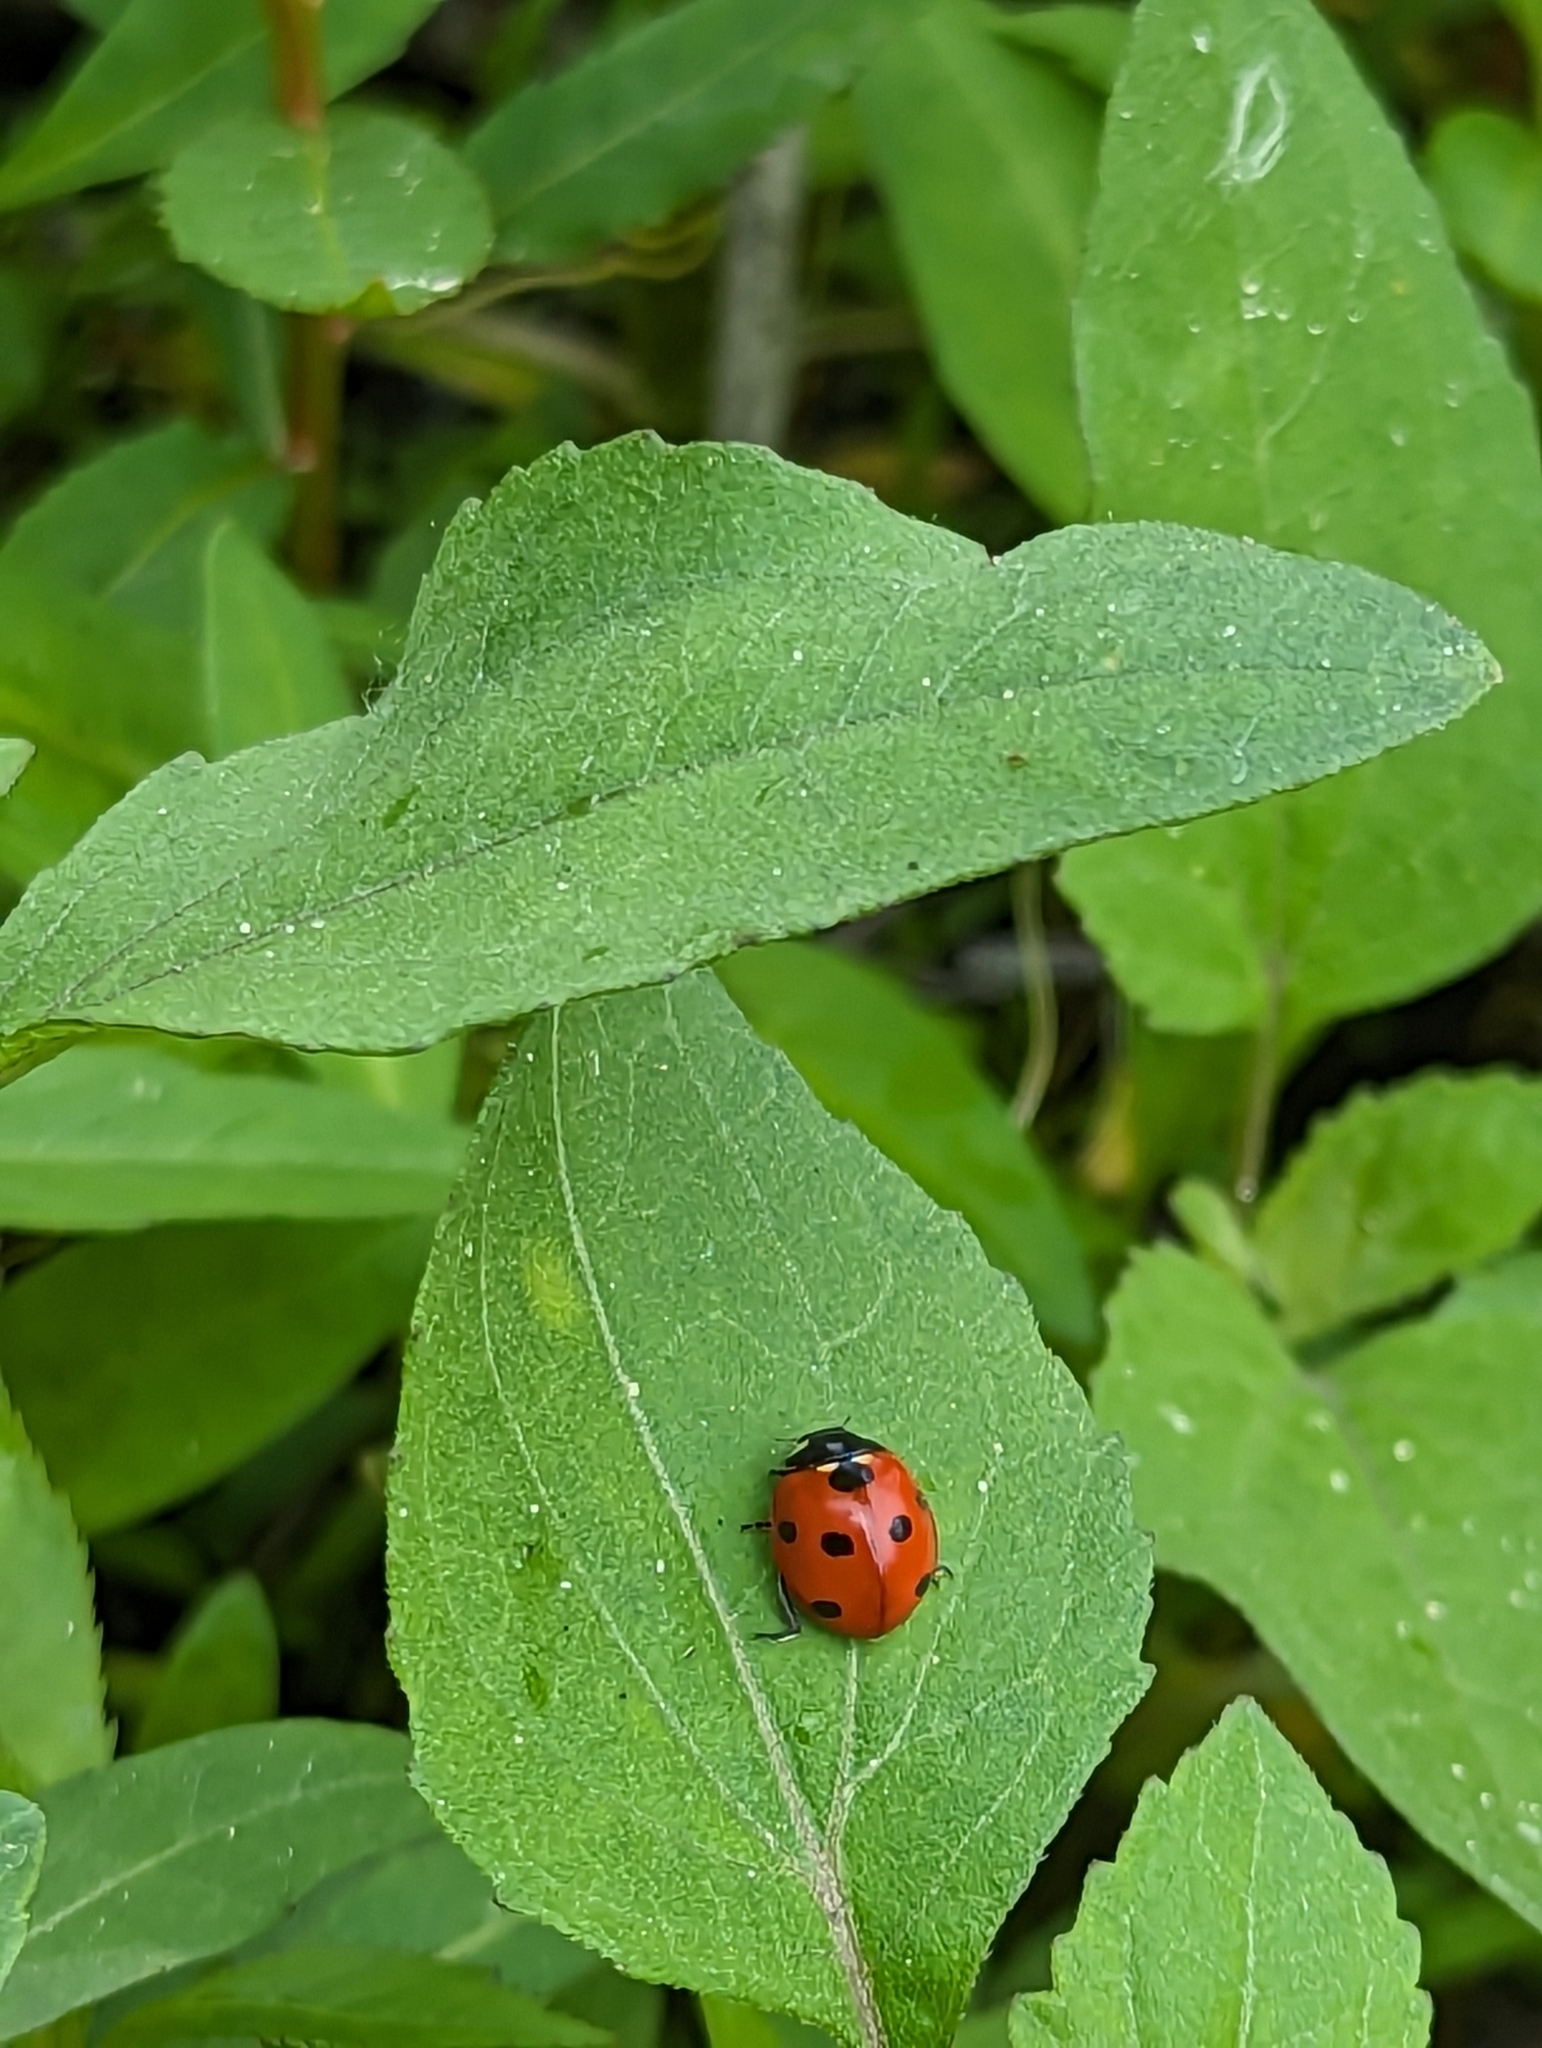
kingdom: Animalia
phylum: Arthropoda
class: Insecta
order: Coleoptera
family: Coccinellidae
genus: Coccinella
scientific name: Coccinella septempunctata
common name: Sevenspotted lady beetle
